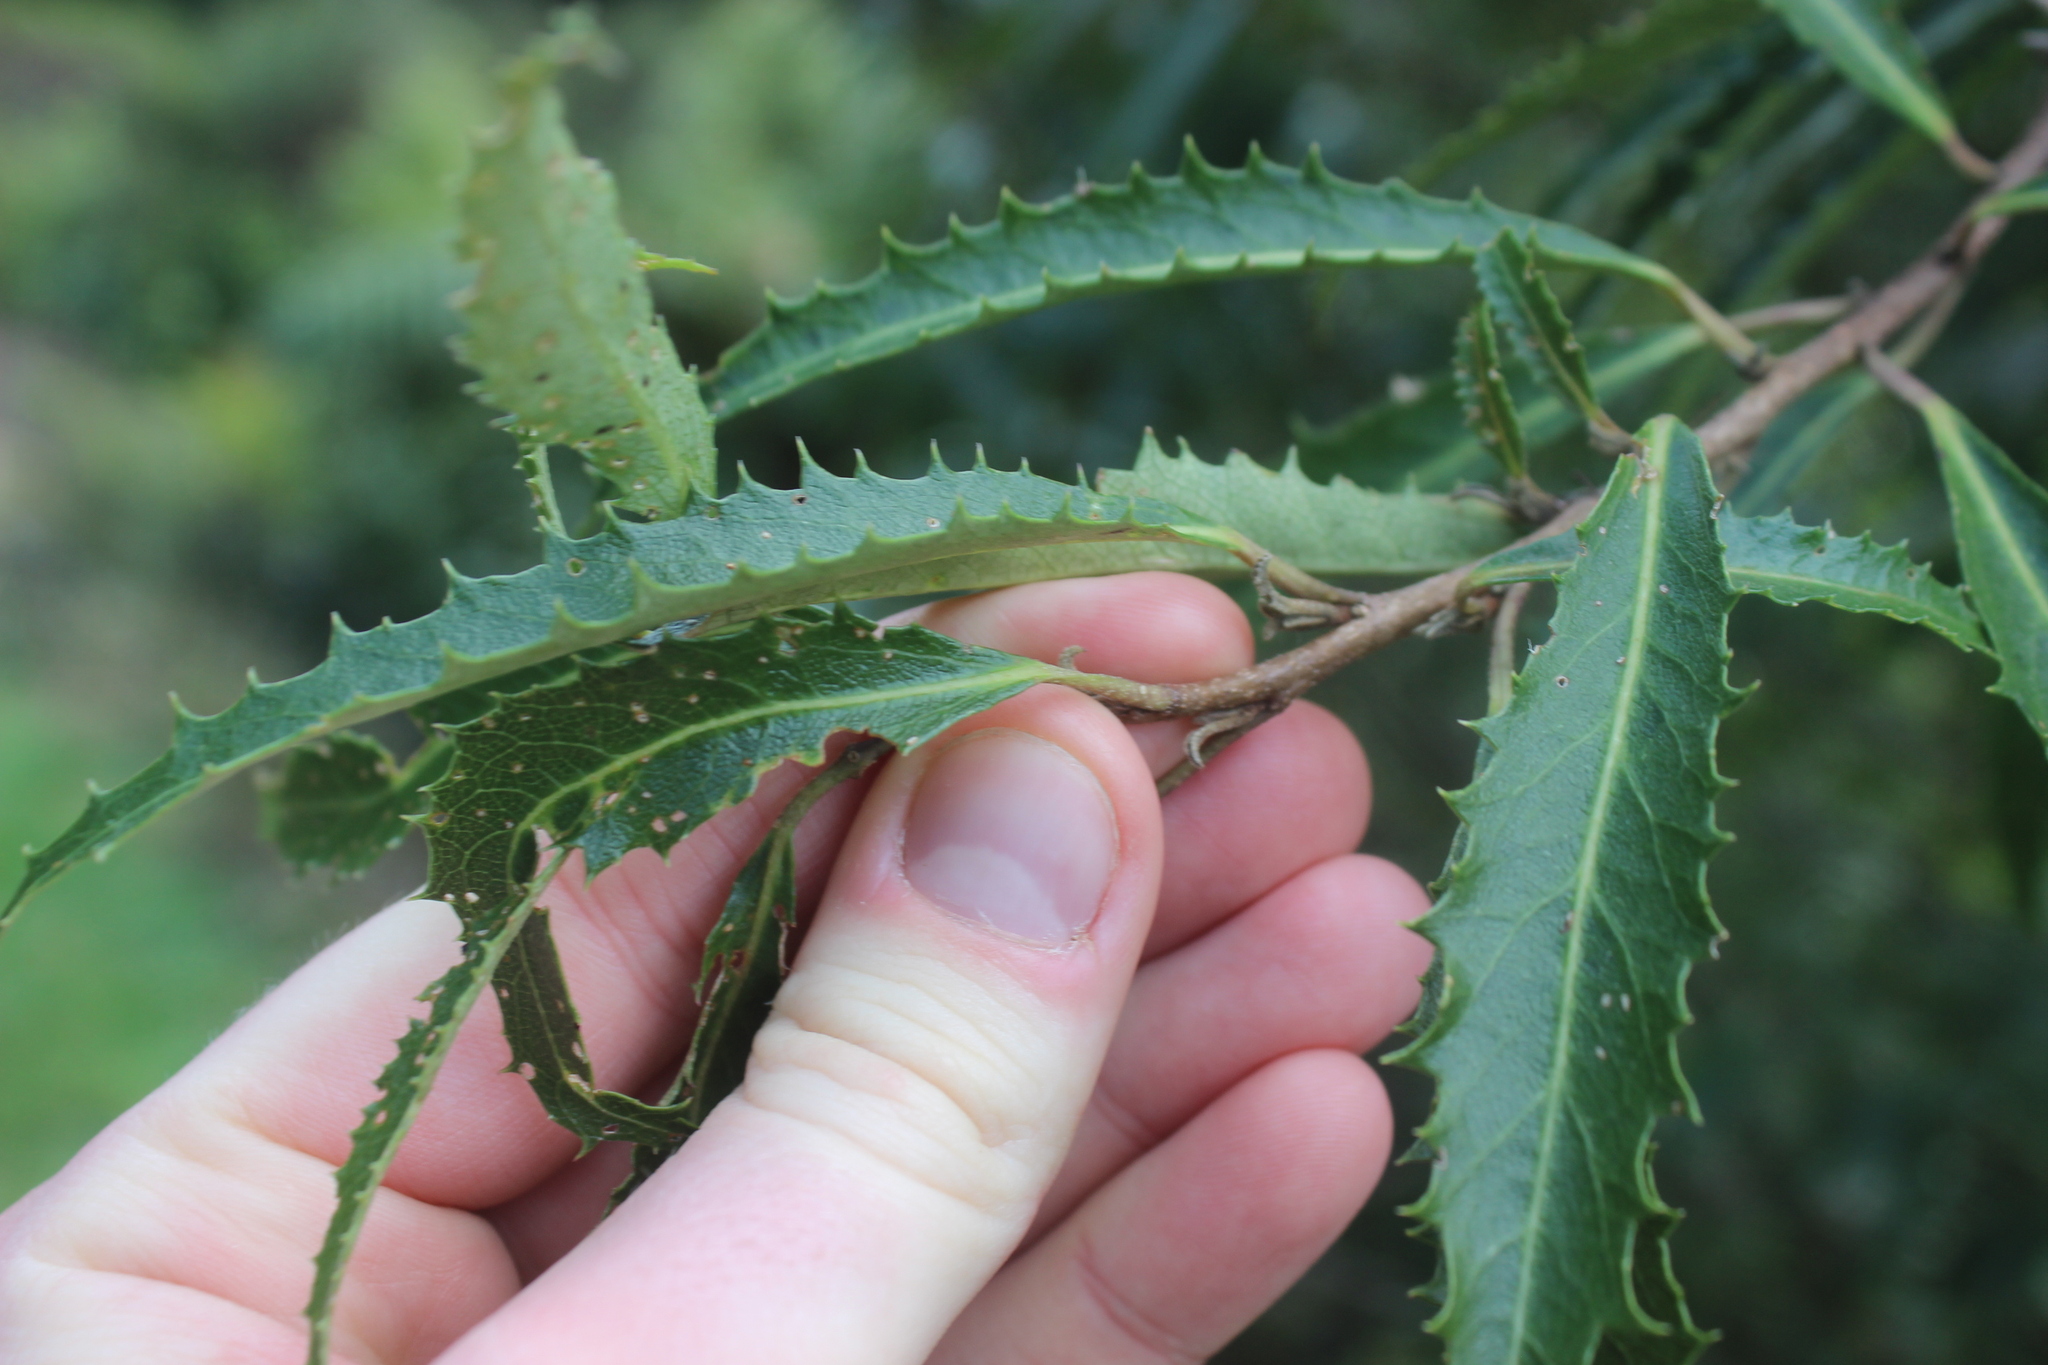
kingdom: Plantae
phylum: Tracheophyta
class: Magnoliopsida
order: Malvales
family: Malvaceae
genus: Hoheria
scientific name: Hoheria angustifolia
